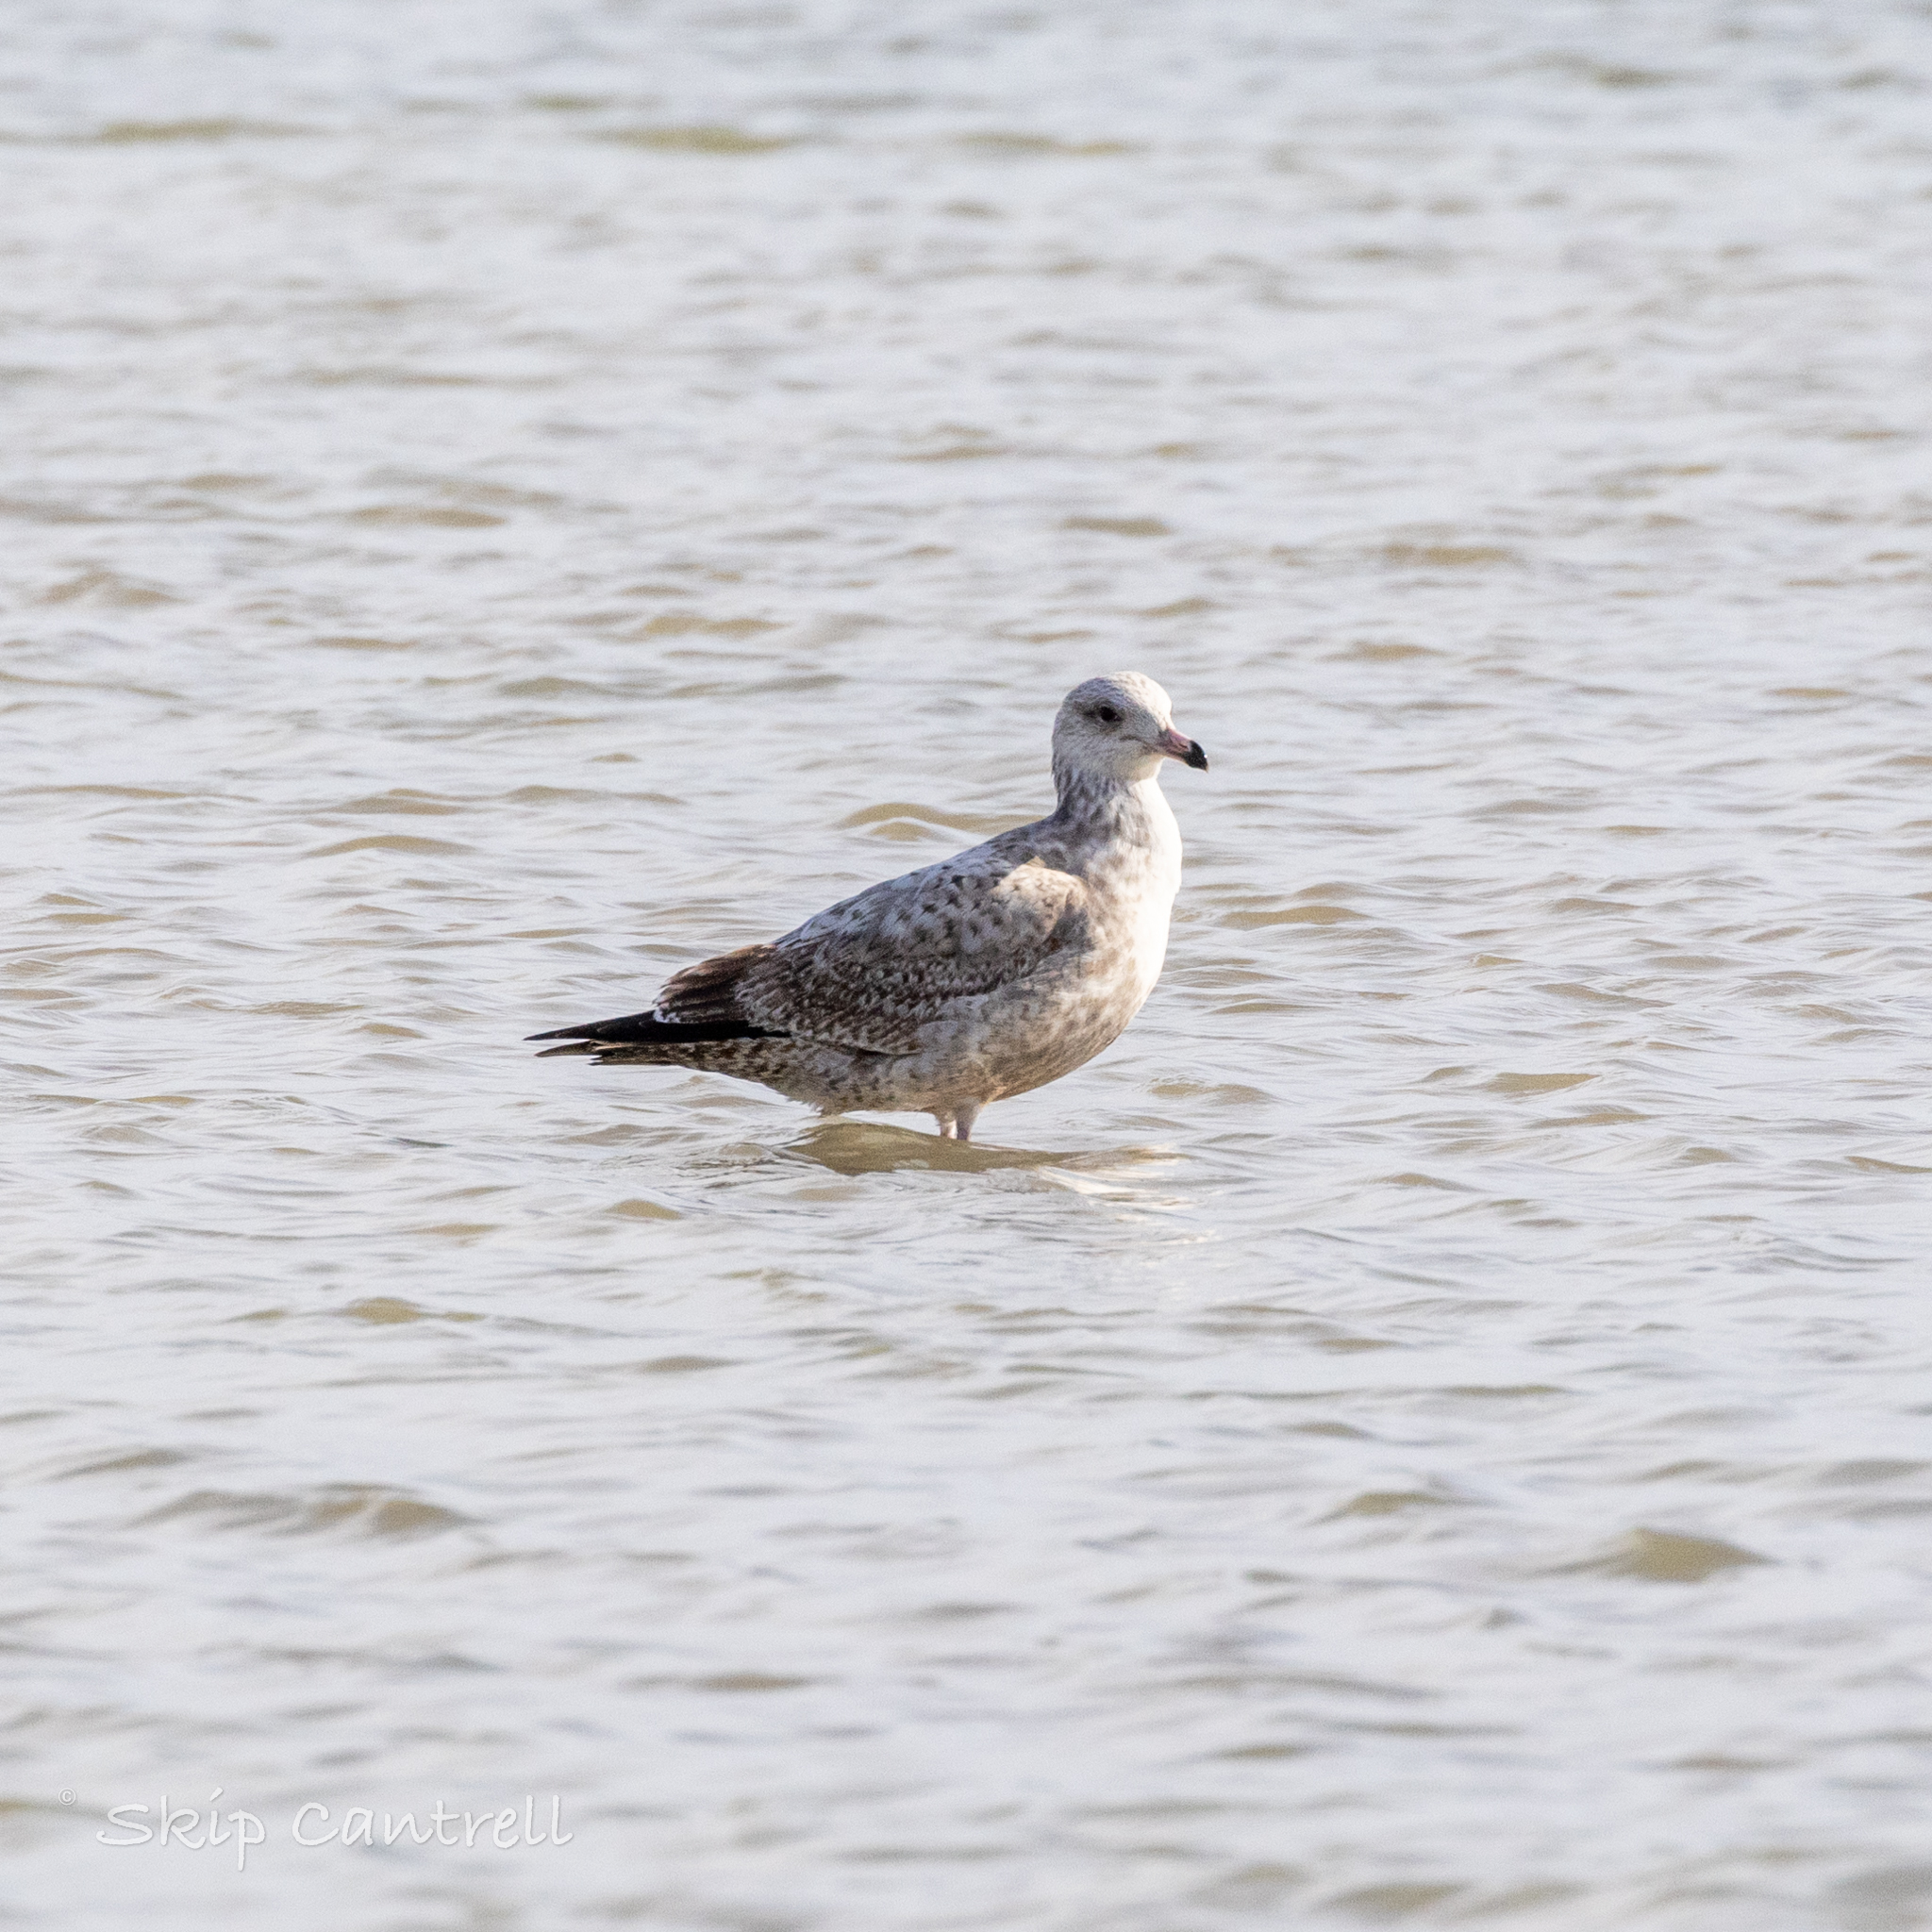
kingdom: Animalia
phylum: Chordata
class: Aves
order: Charadriiformes
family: Laridae
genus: Larus
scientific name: Larus argentatus
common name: Herring gull
